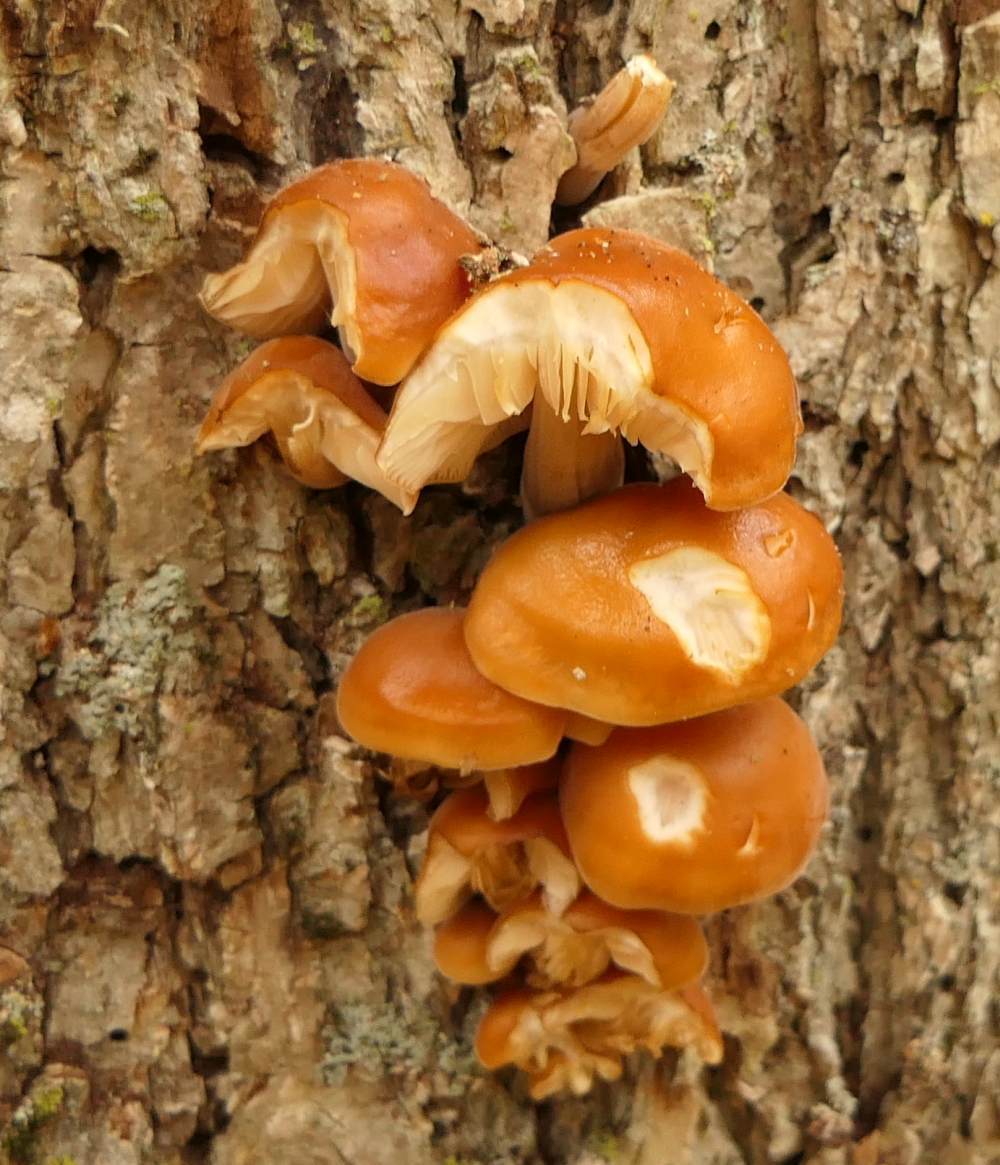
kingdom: Fungi
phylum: Basidiomycota
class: Agaricomycetes
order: Agaricales
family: Physalacriaceae
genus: Flammulina
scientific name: Flammulina velutipes
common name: Velvet shank
